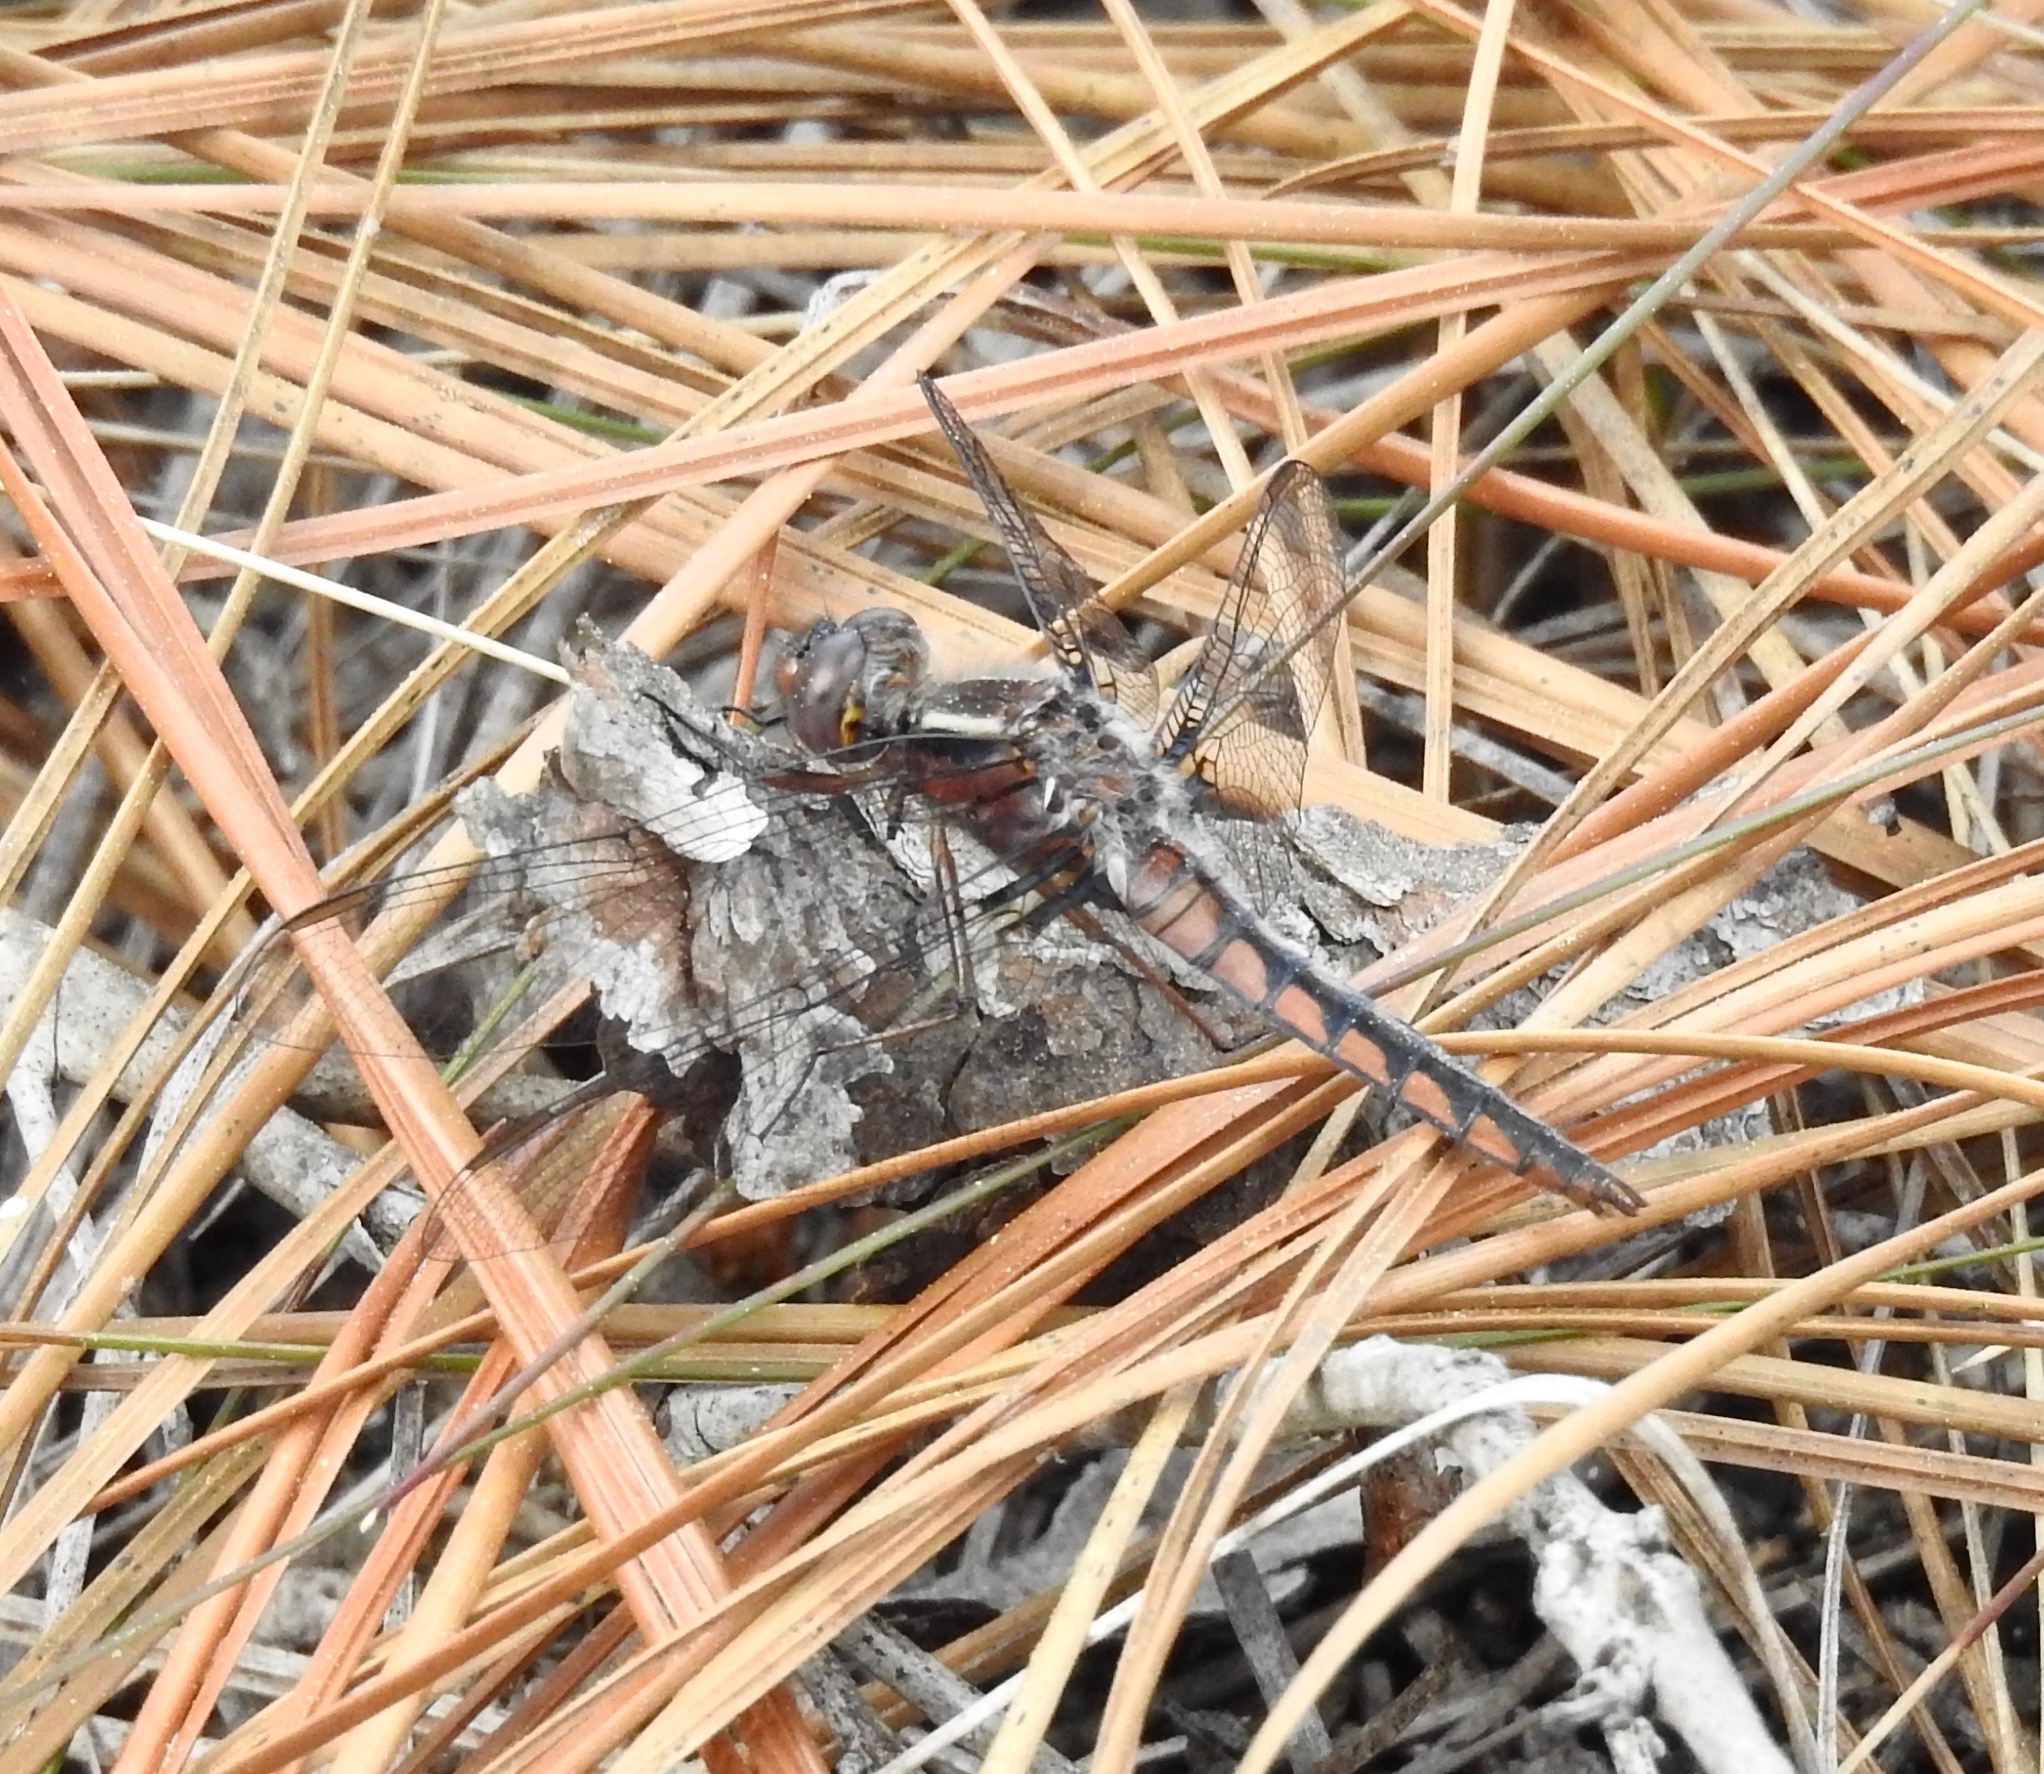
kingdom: Animalia
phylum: Arthropoda
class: Insecta
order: Odonata
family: Libellulidae
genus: Ladona
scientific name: Ladona deplanata
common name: Blue corporal
